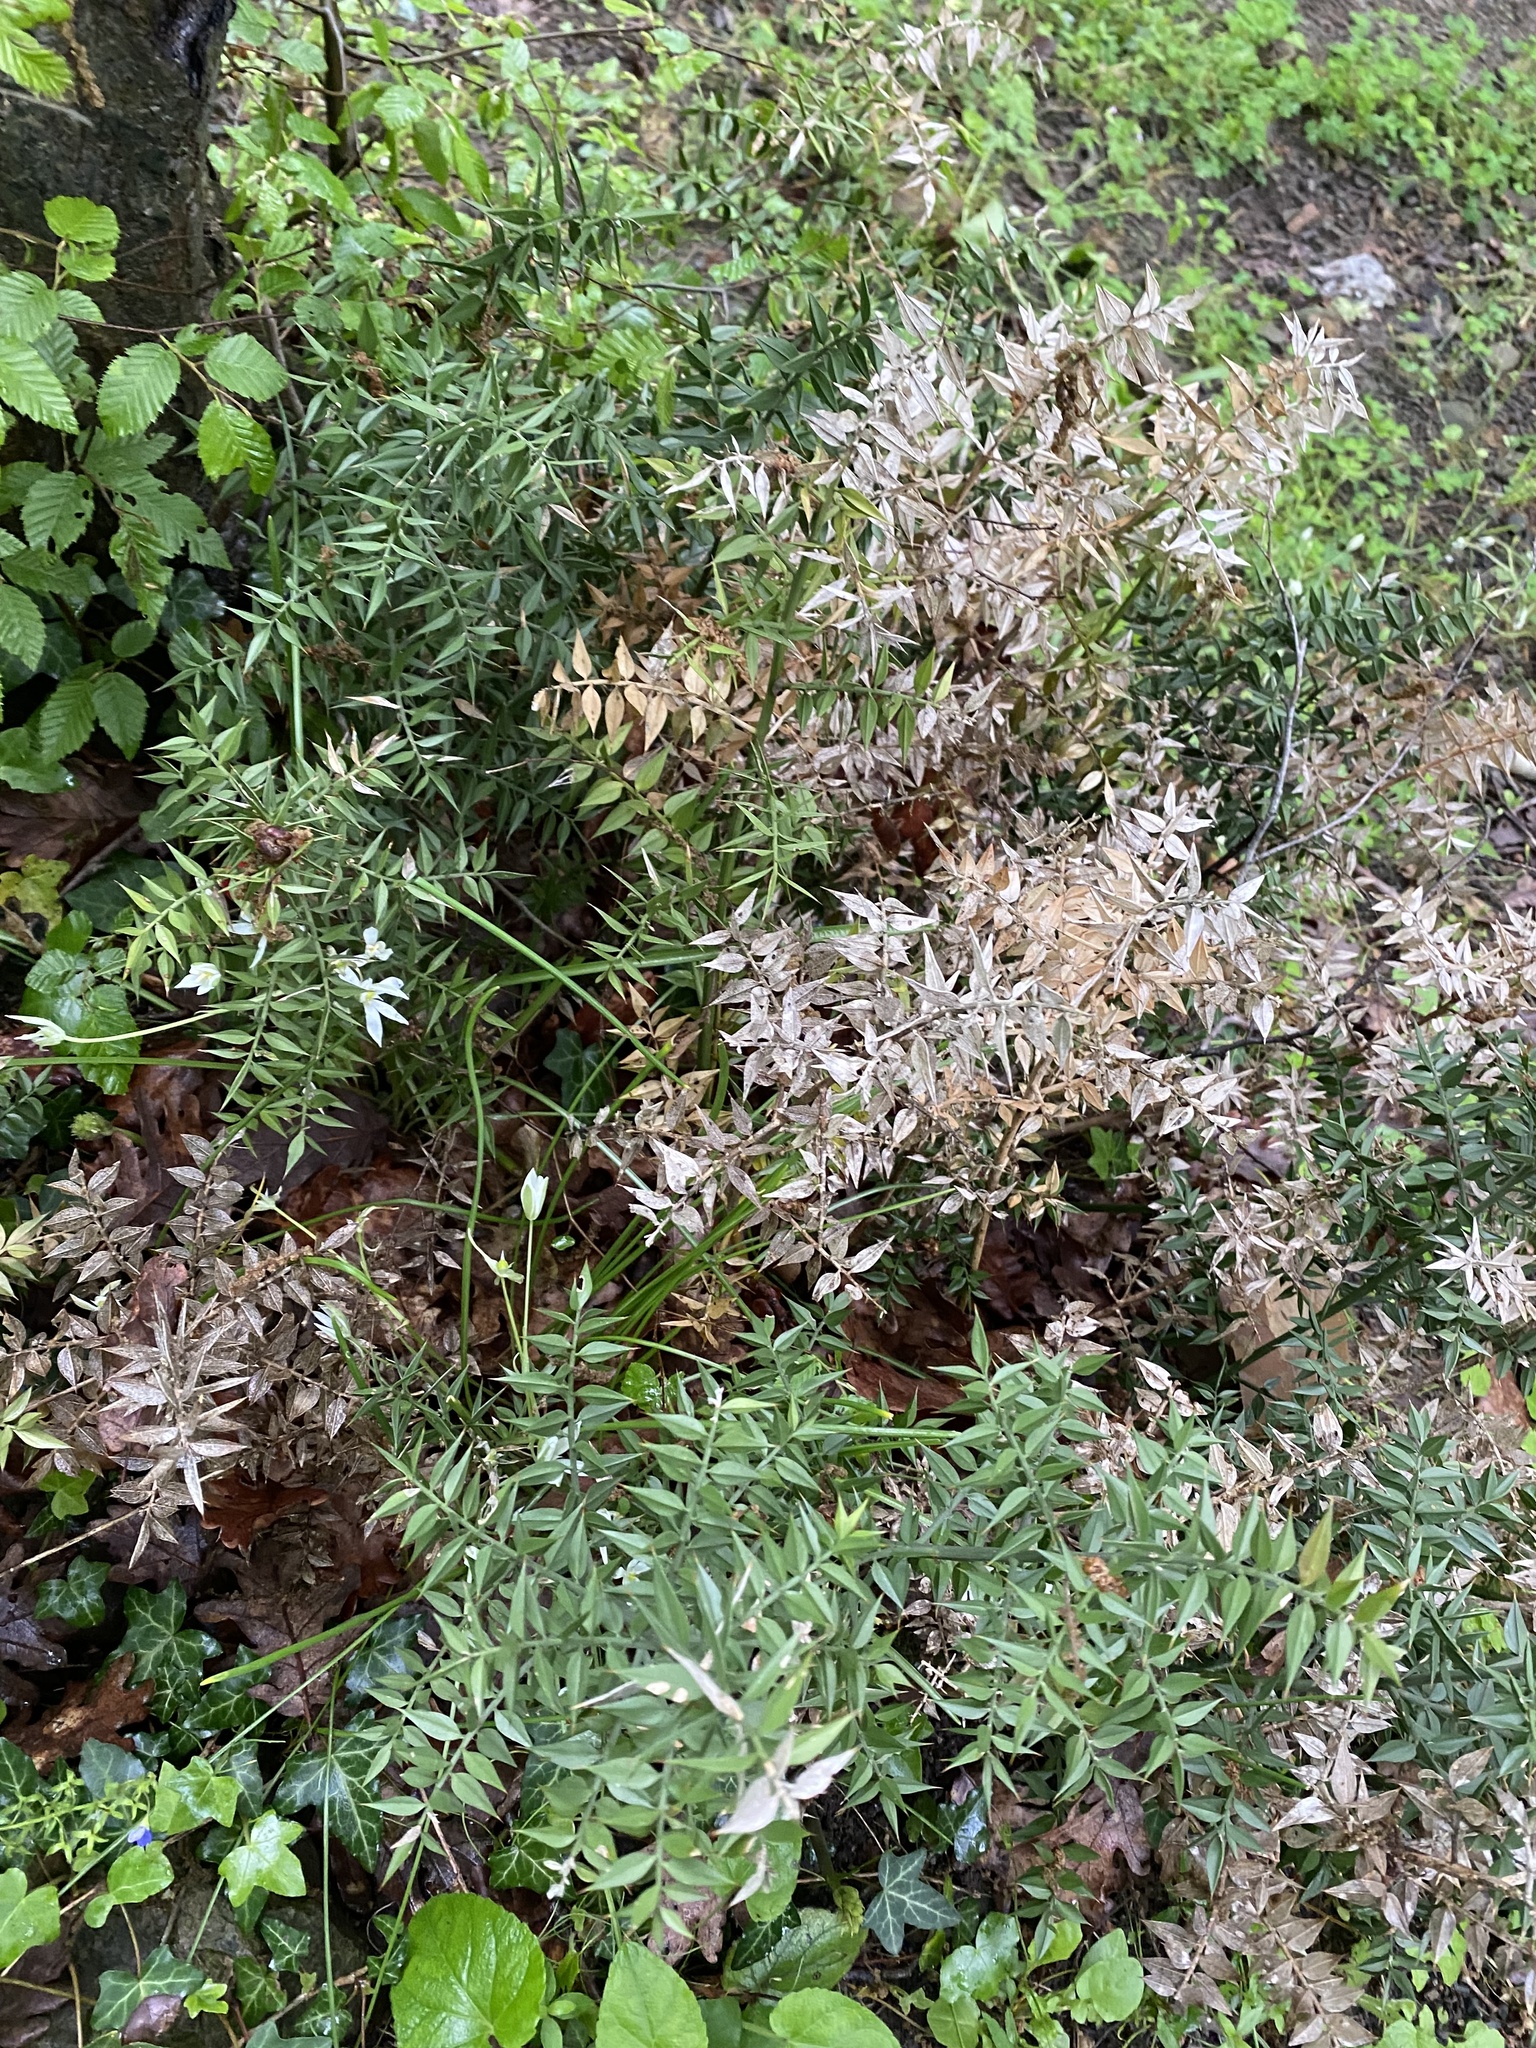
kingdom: Plantae
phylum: Tracheophyta
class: Liliopsida
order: Asparagales
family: Asparagaceae
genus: Ruscus
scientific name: Ruscus aculeatus
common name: Butcher's-broom
